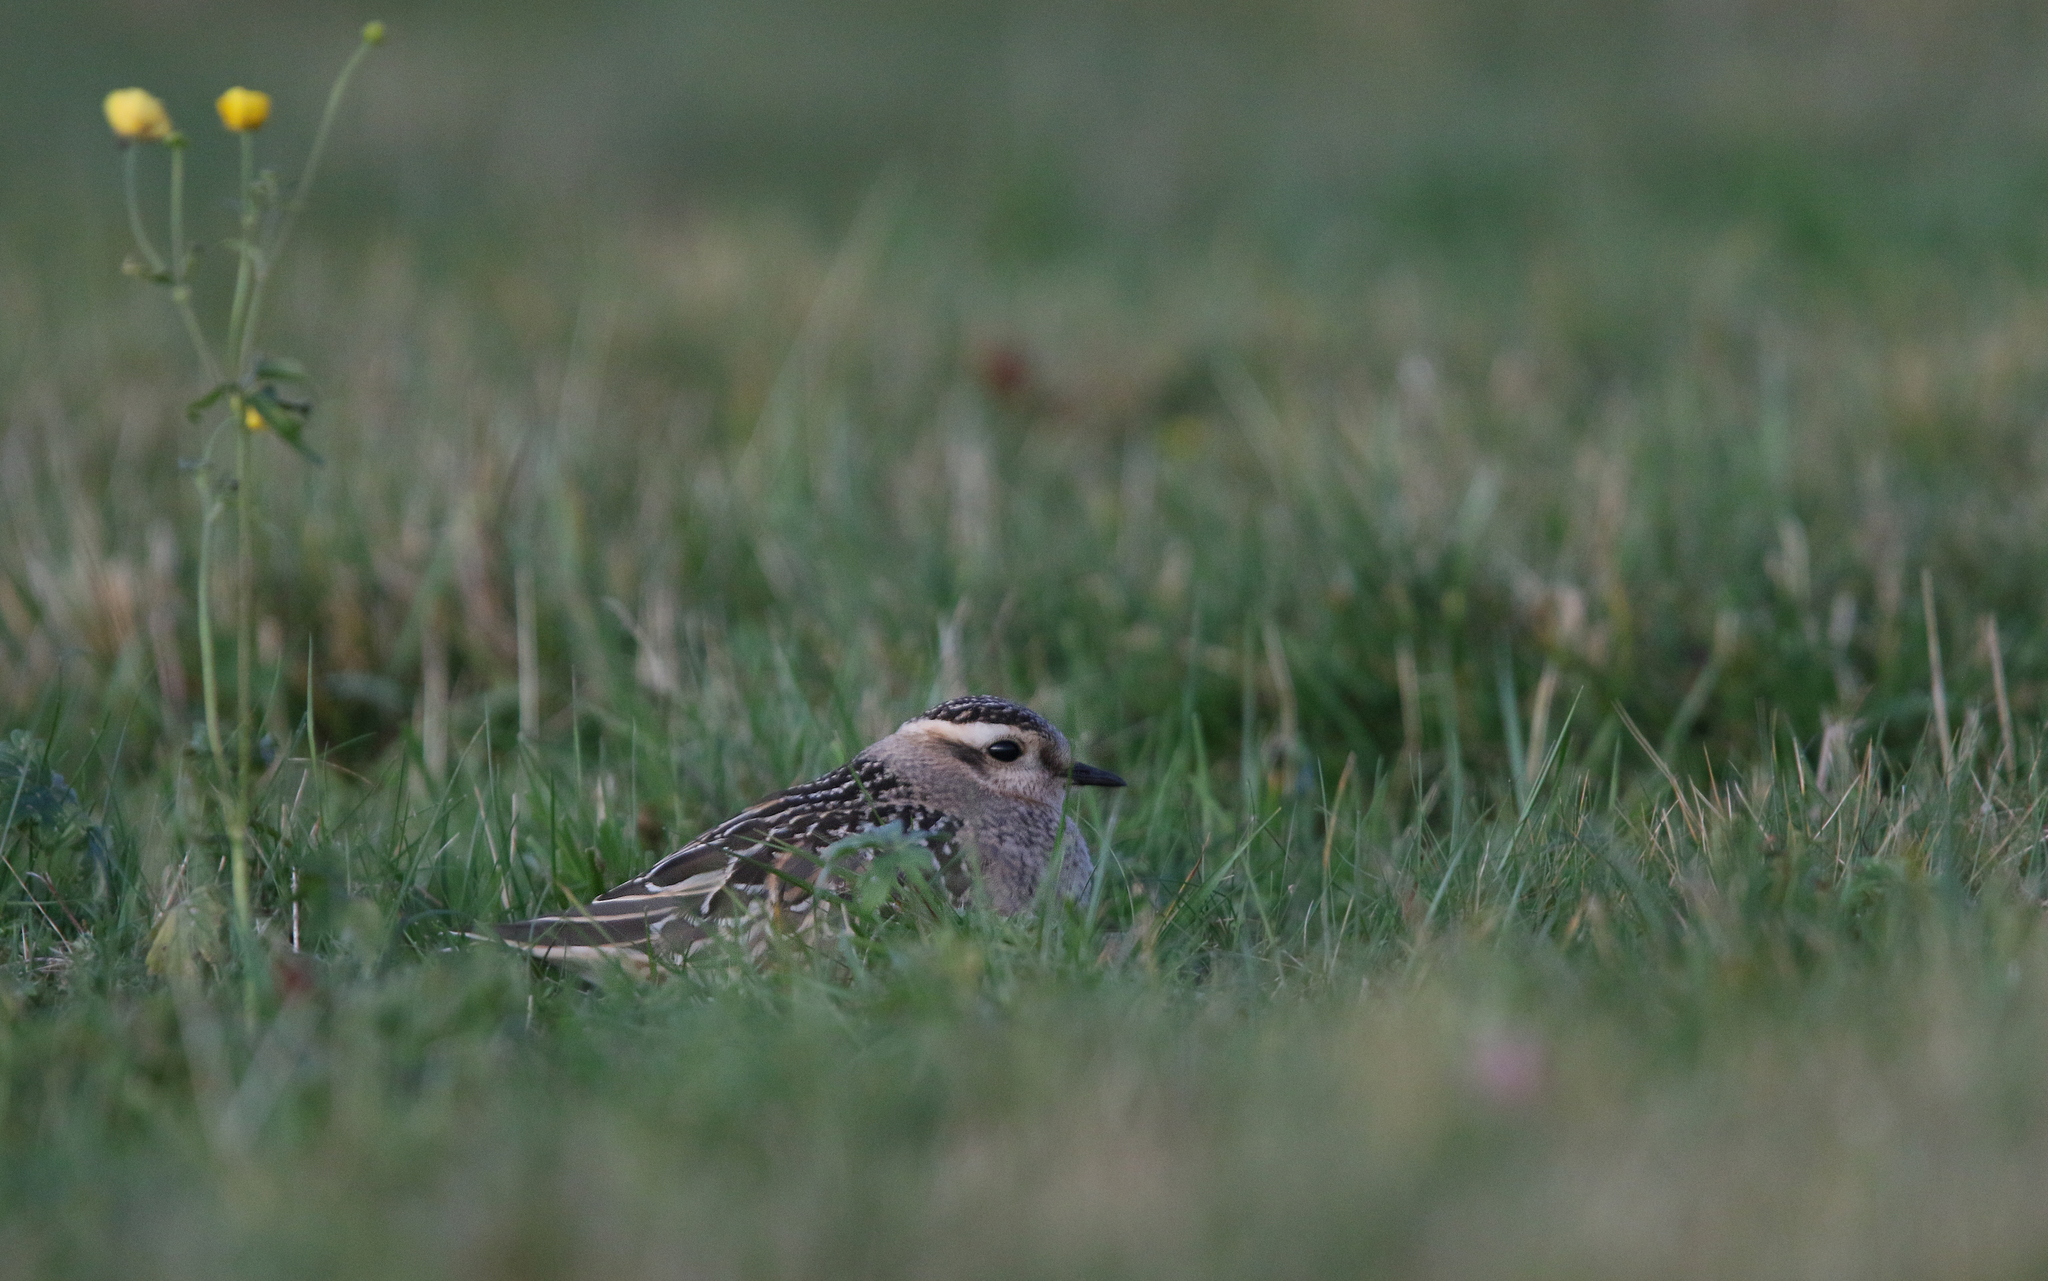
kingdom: Animalia
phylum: Chordata
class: Aves
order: Charadriiformes
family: Charadriidae
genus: Charadrius
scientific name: Charadrius morinellus
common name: Eurasian dotterel
